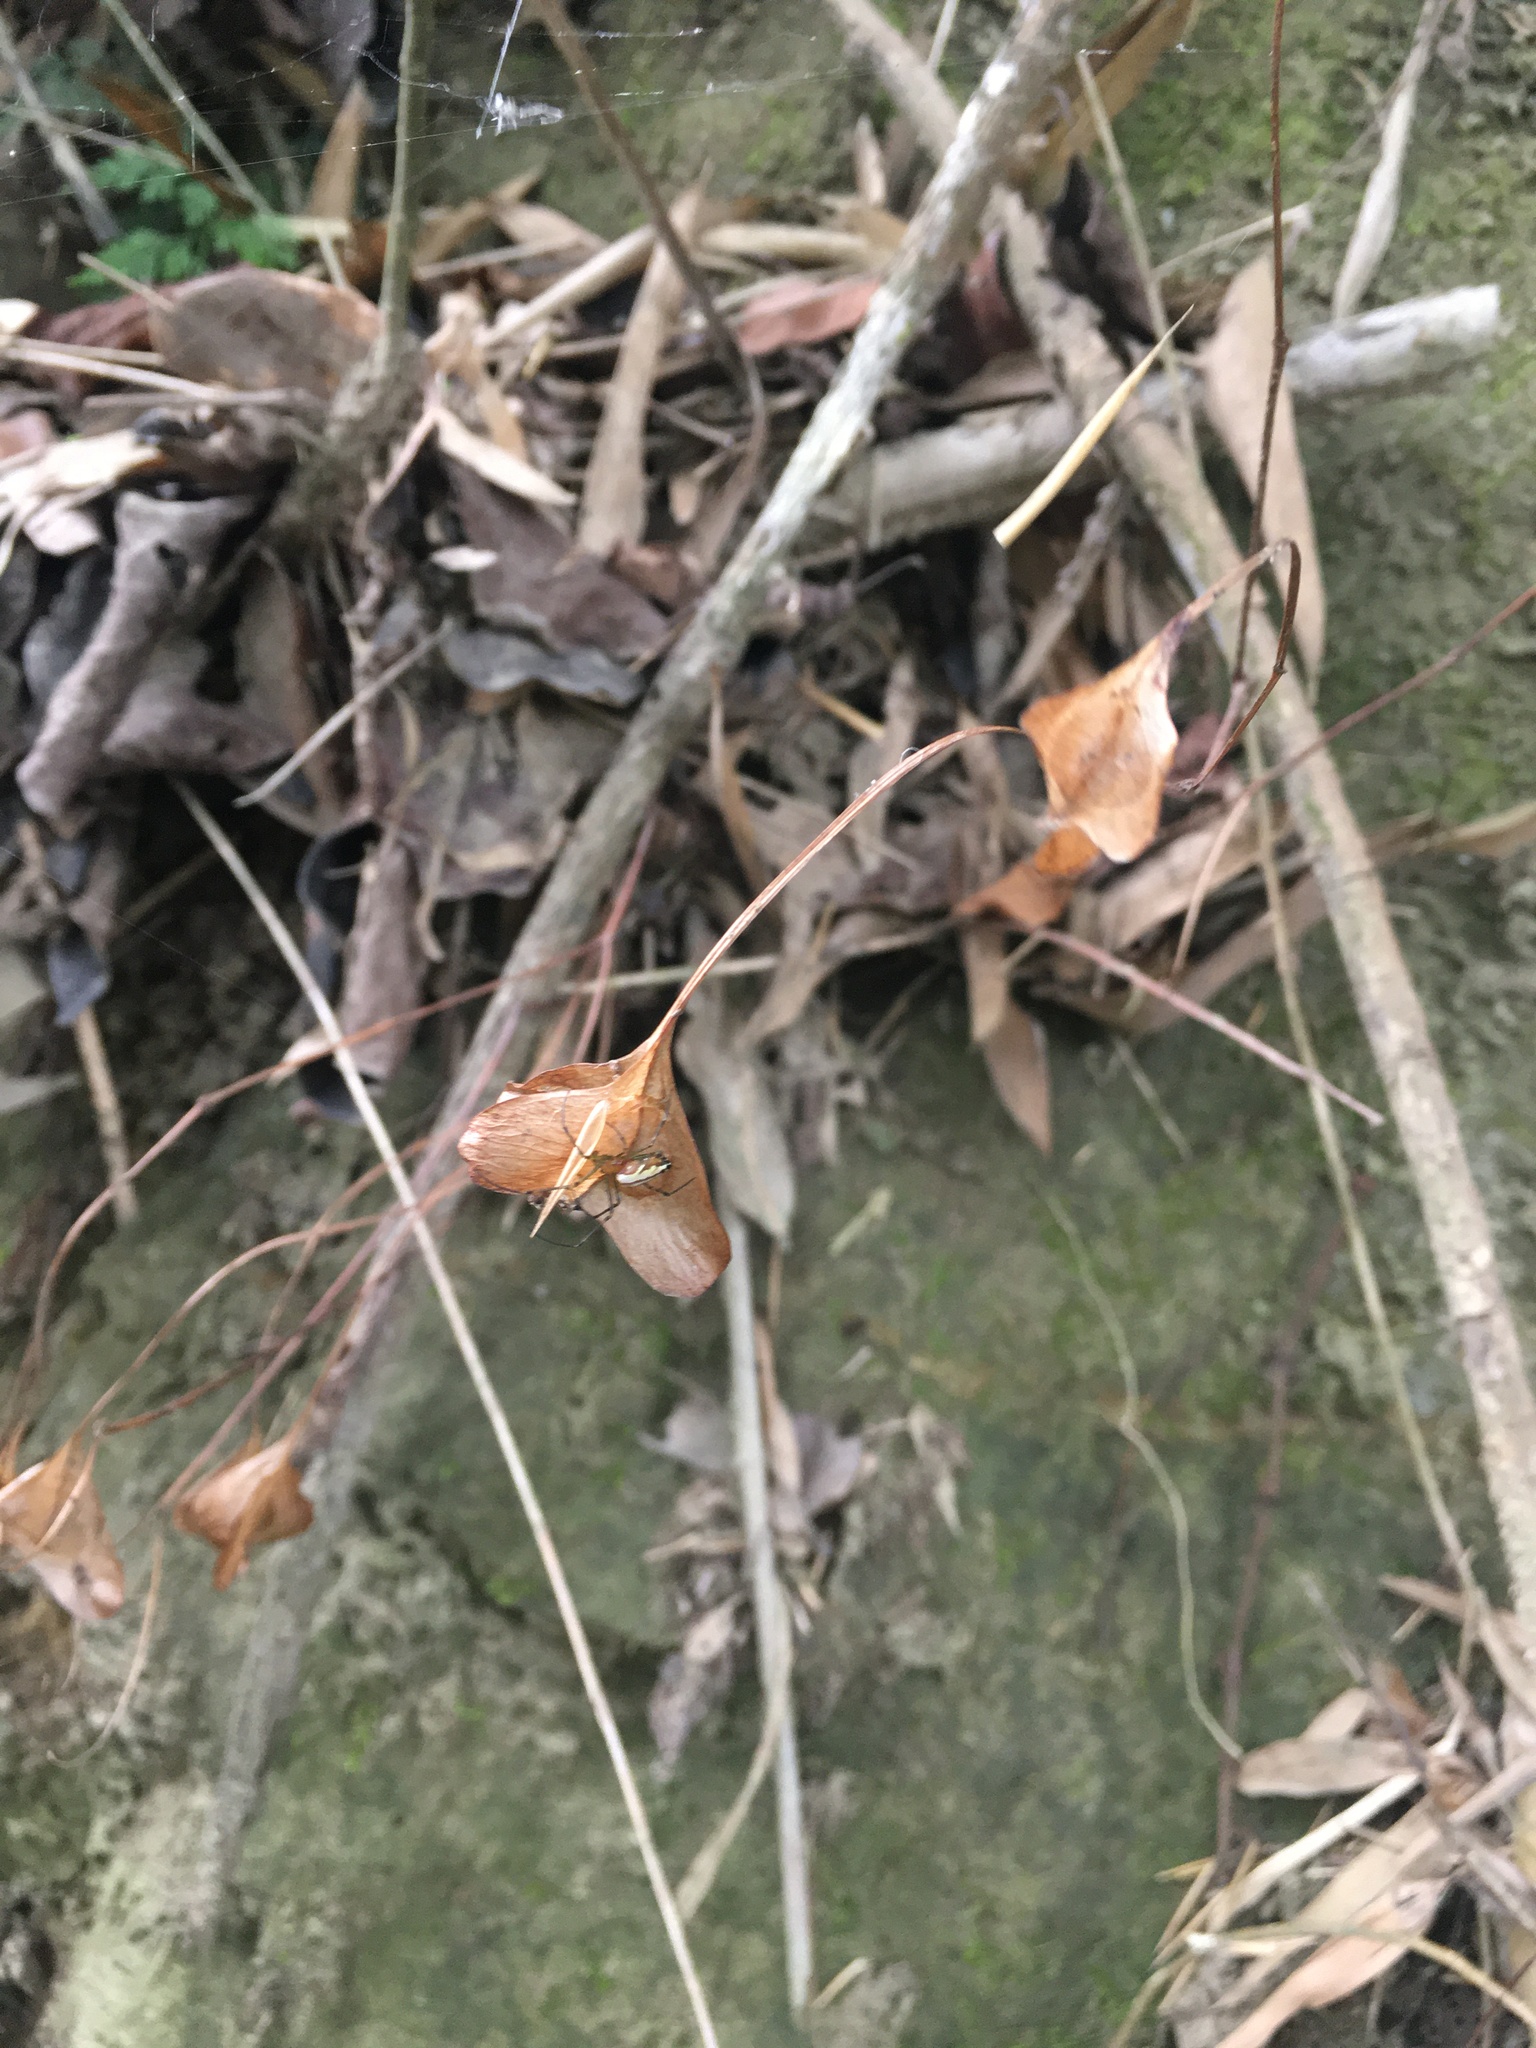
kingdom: Plantae
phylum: Tracheophyta
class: Magnoliopsida
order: Cucurbitales
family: Begoniaceae
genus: Begonia
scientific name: Begonia ravenii
